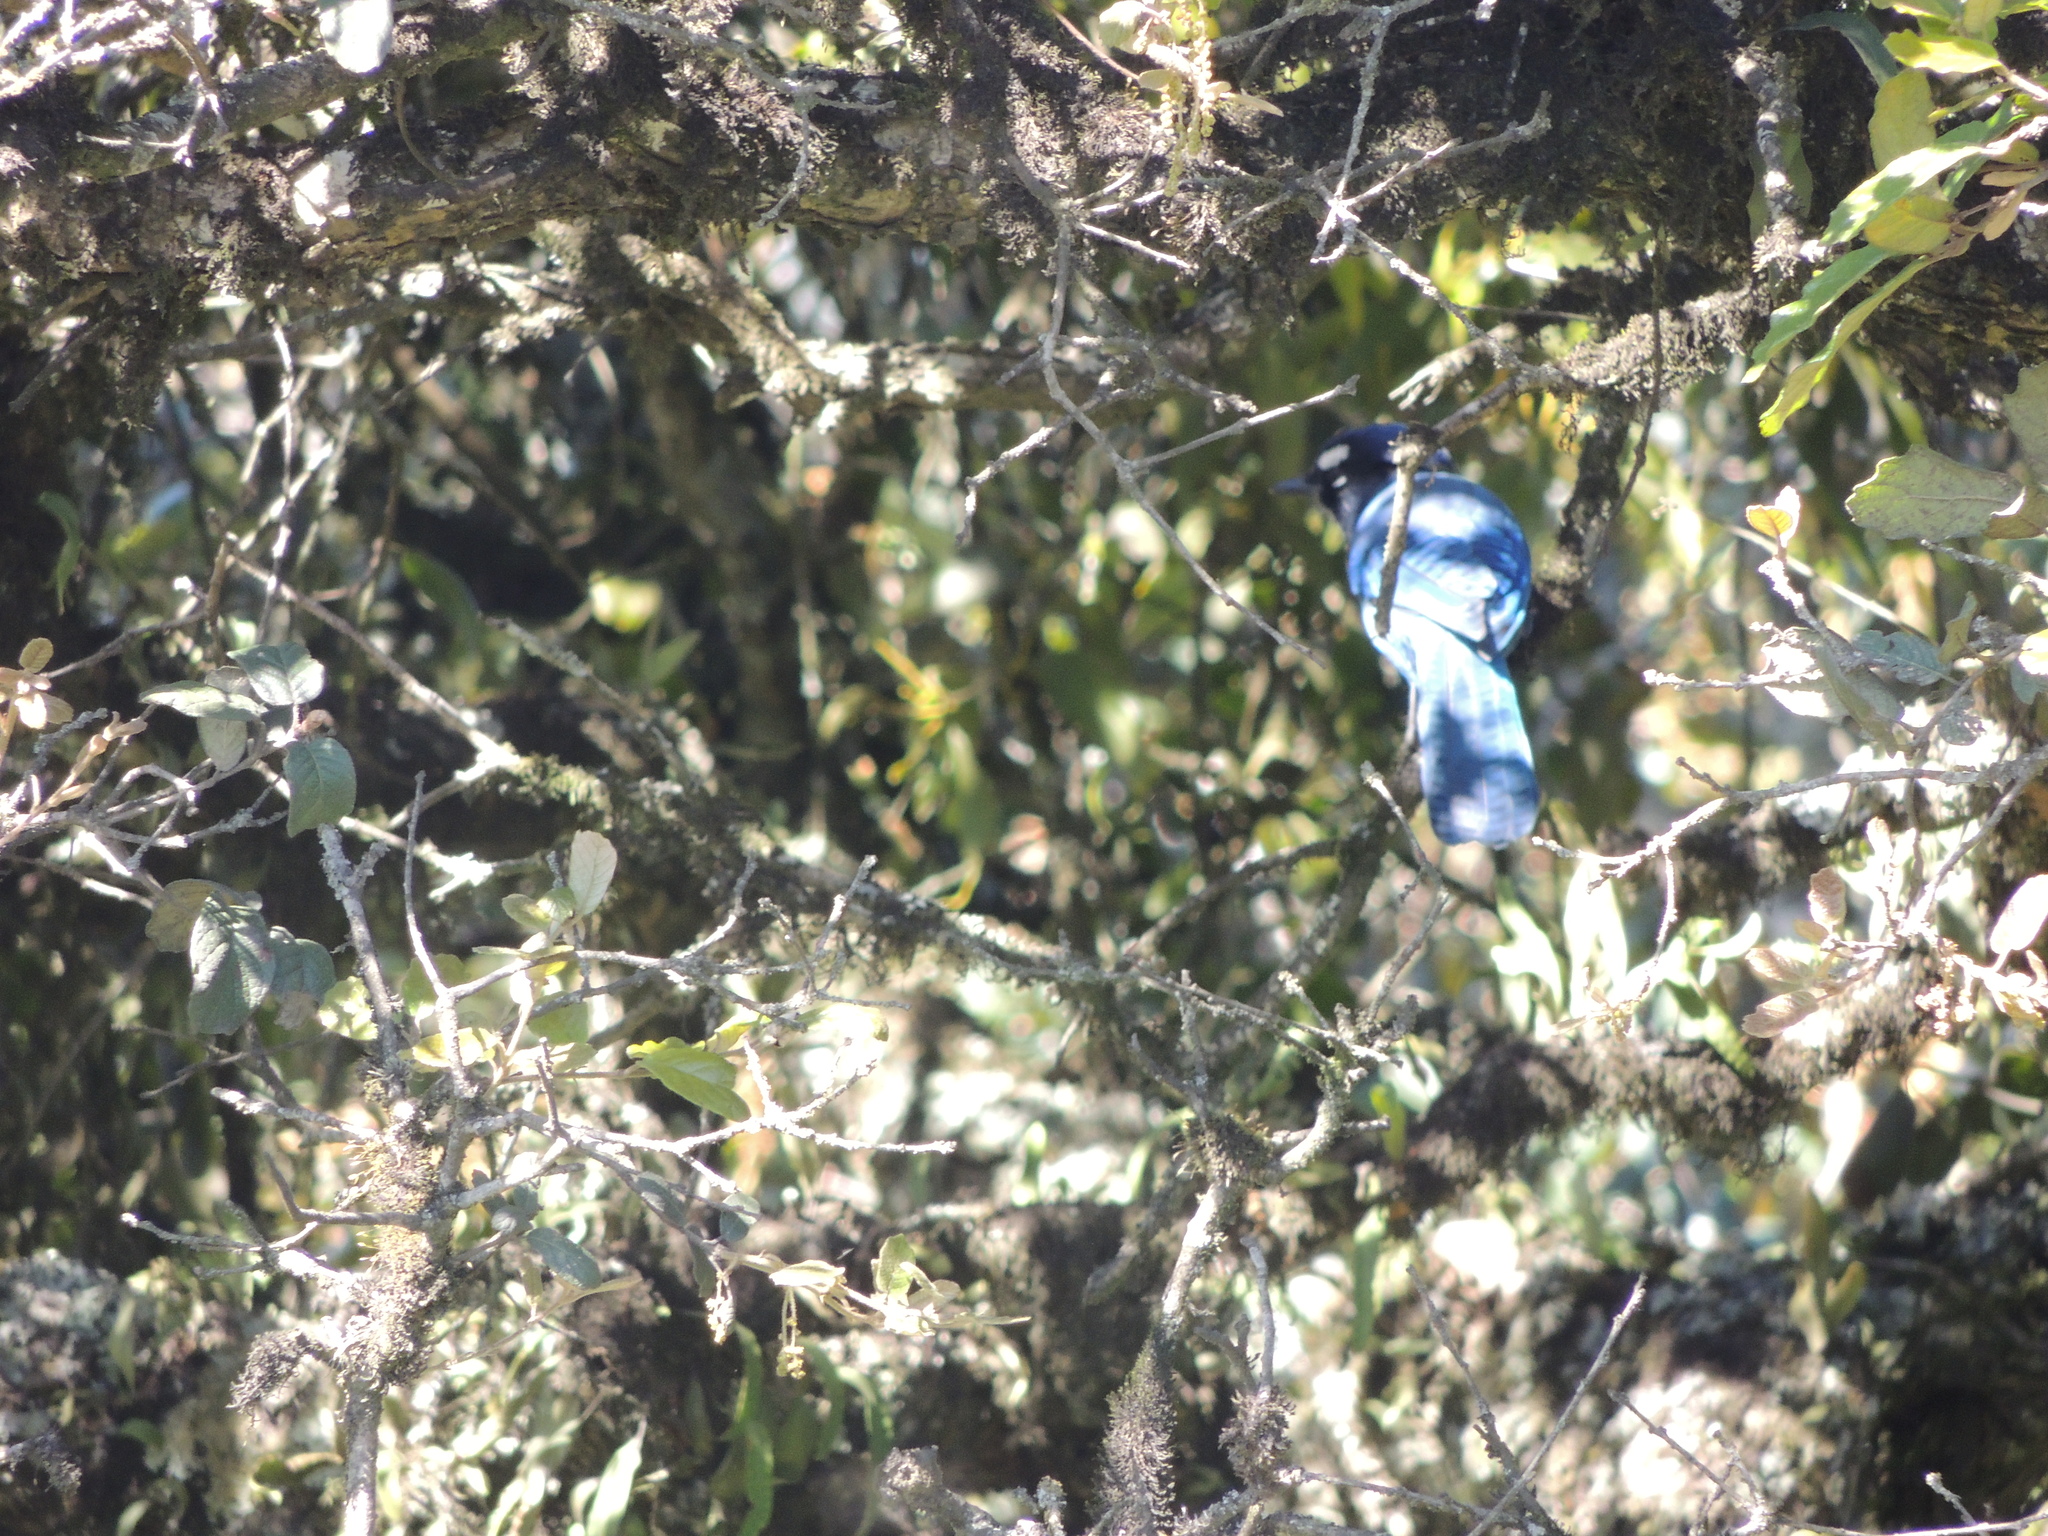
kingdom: Animalia
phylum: Chordata
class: Aves
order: Passeriformes
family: Corvidae
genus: Cyanocitta
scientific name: Cyanocitta stelleri
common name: Steller's jay
